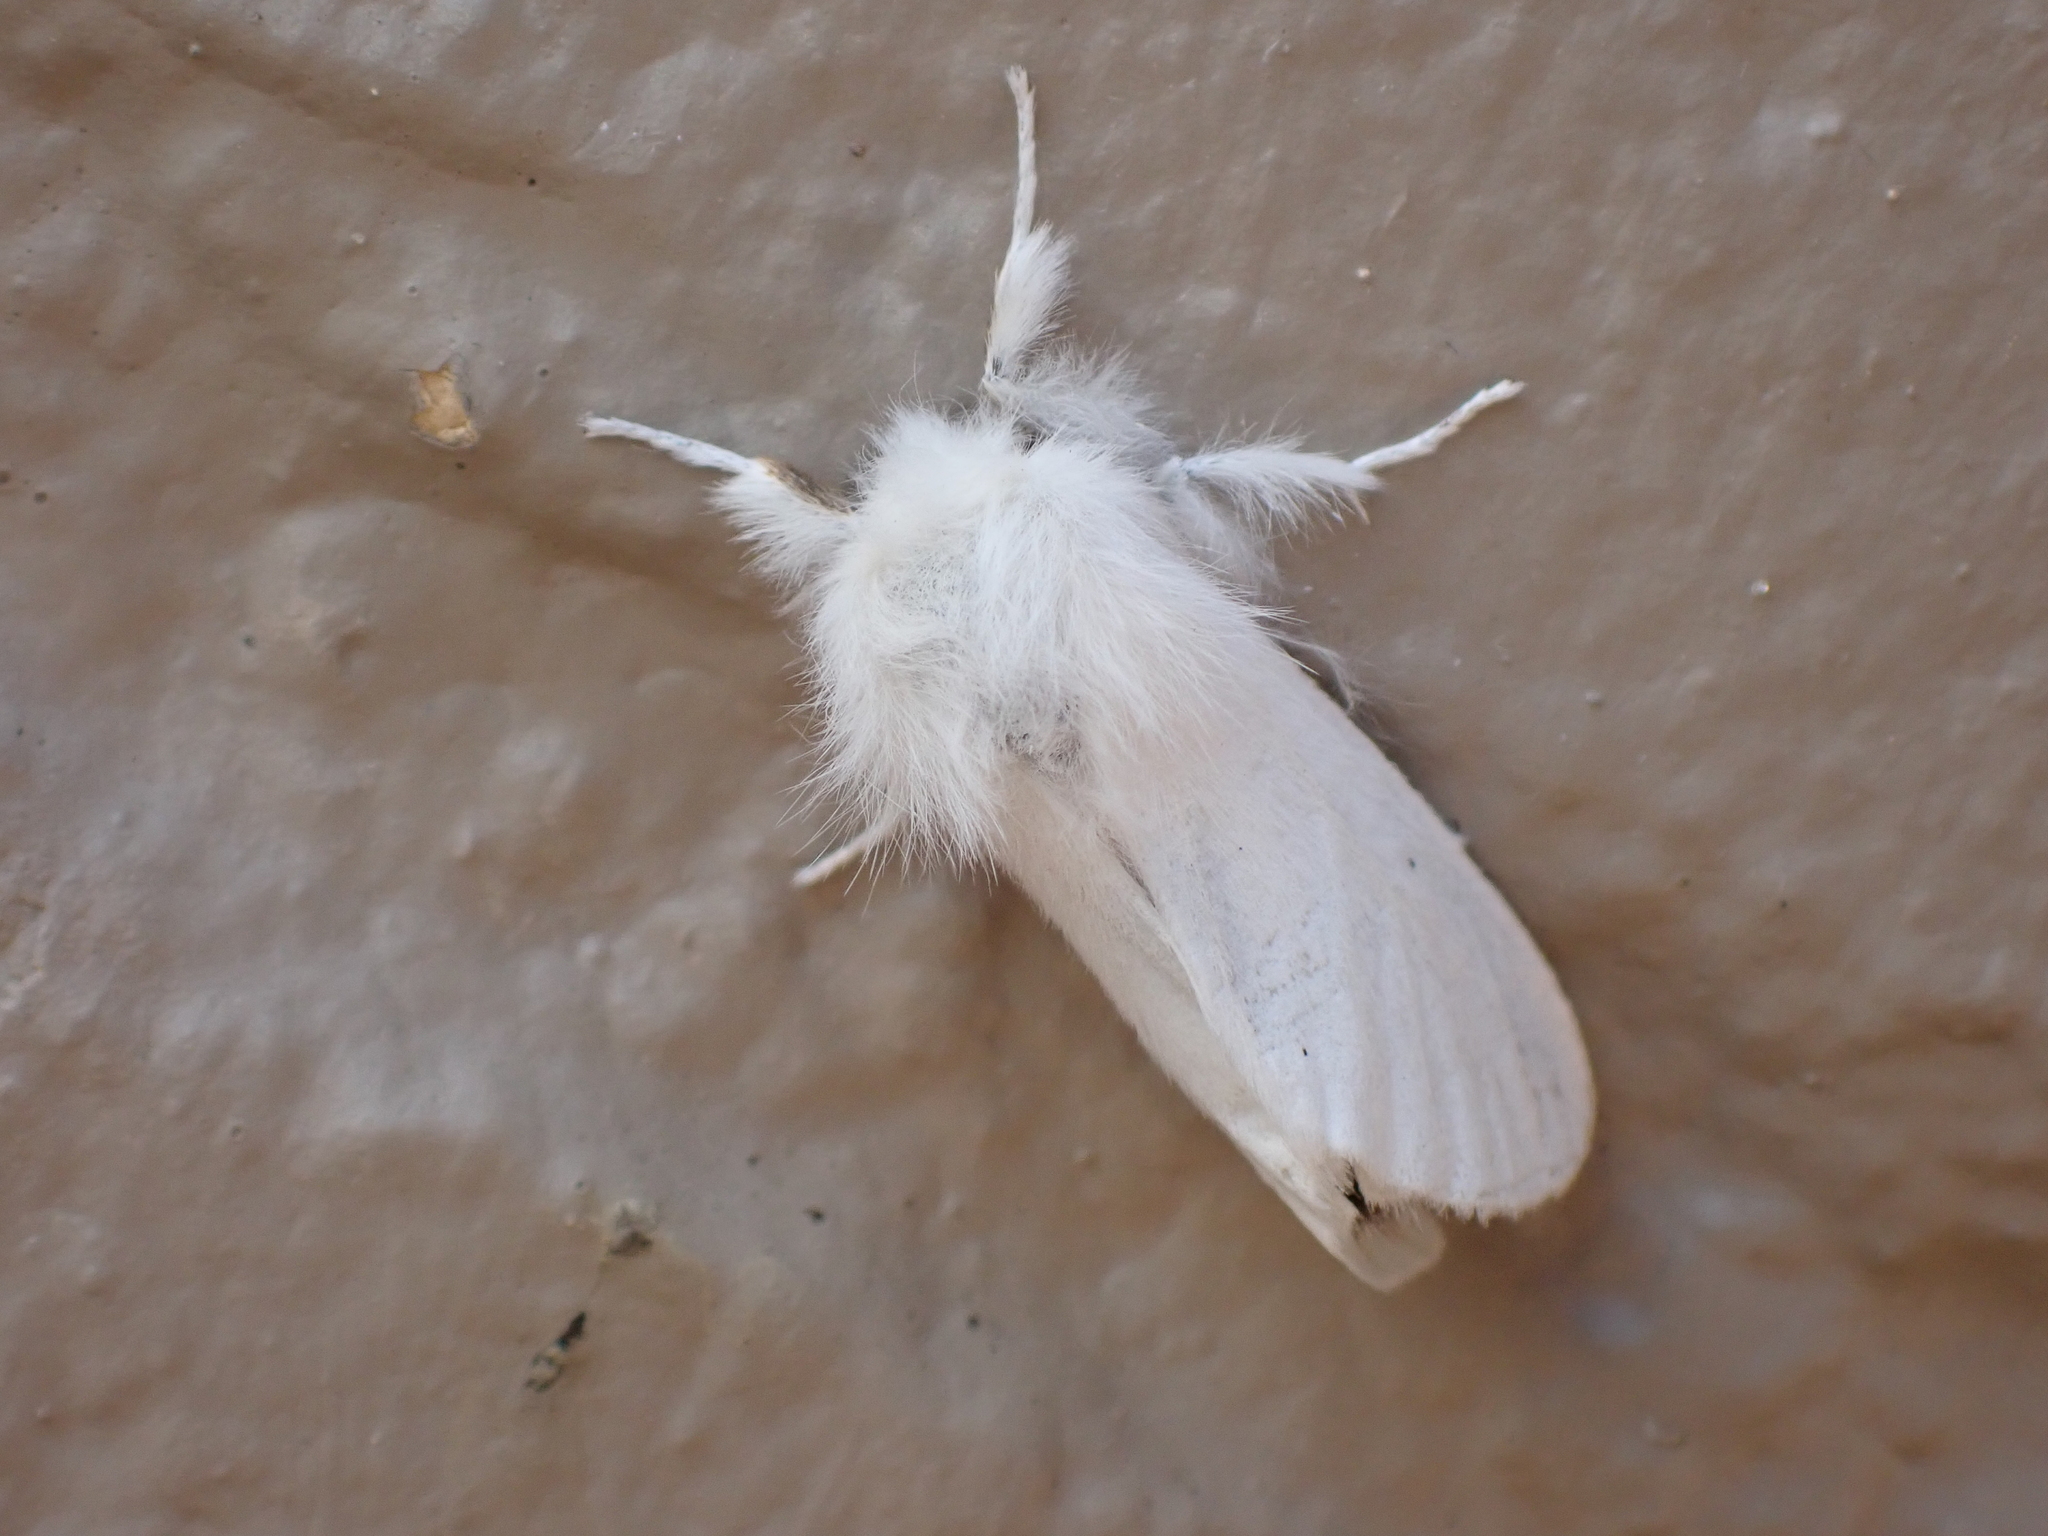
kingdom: Animalia
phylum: Arthropoda
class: Insecta
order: Lepidoptera
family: Erebidae
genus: Euproctis
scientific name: Euproctis chrysorrhoea
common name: Brown-tail
